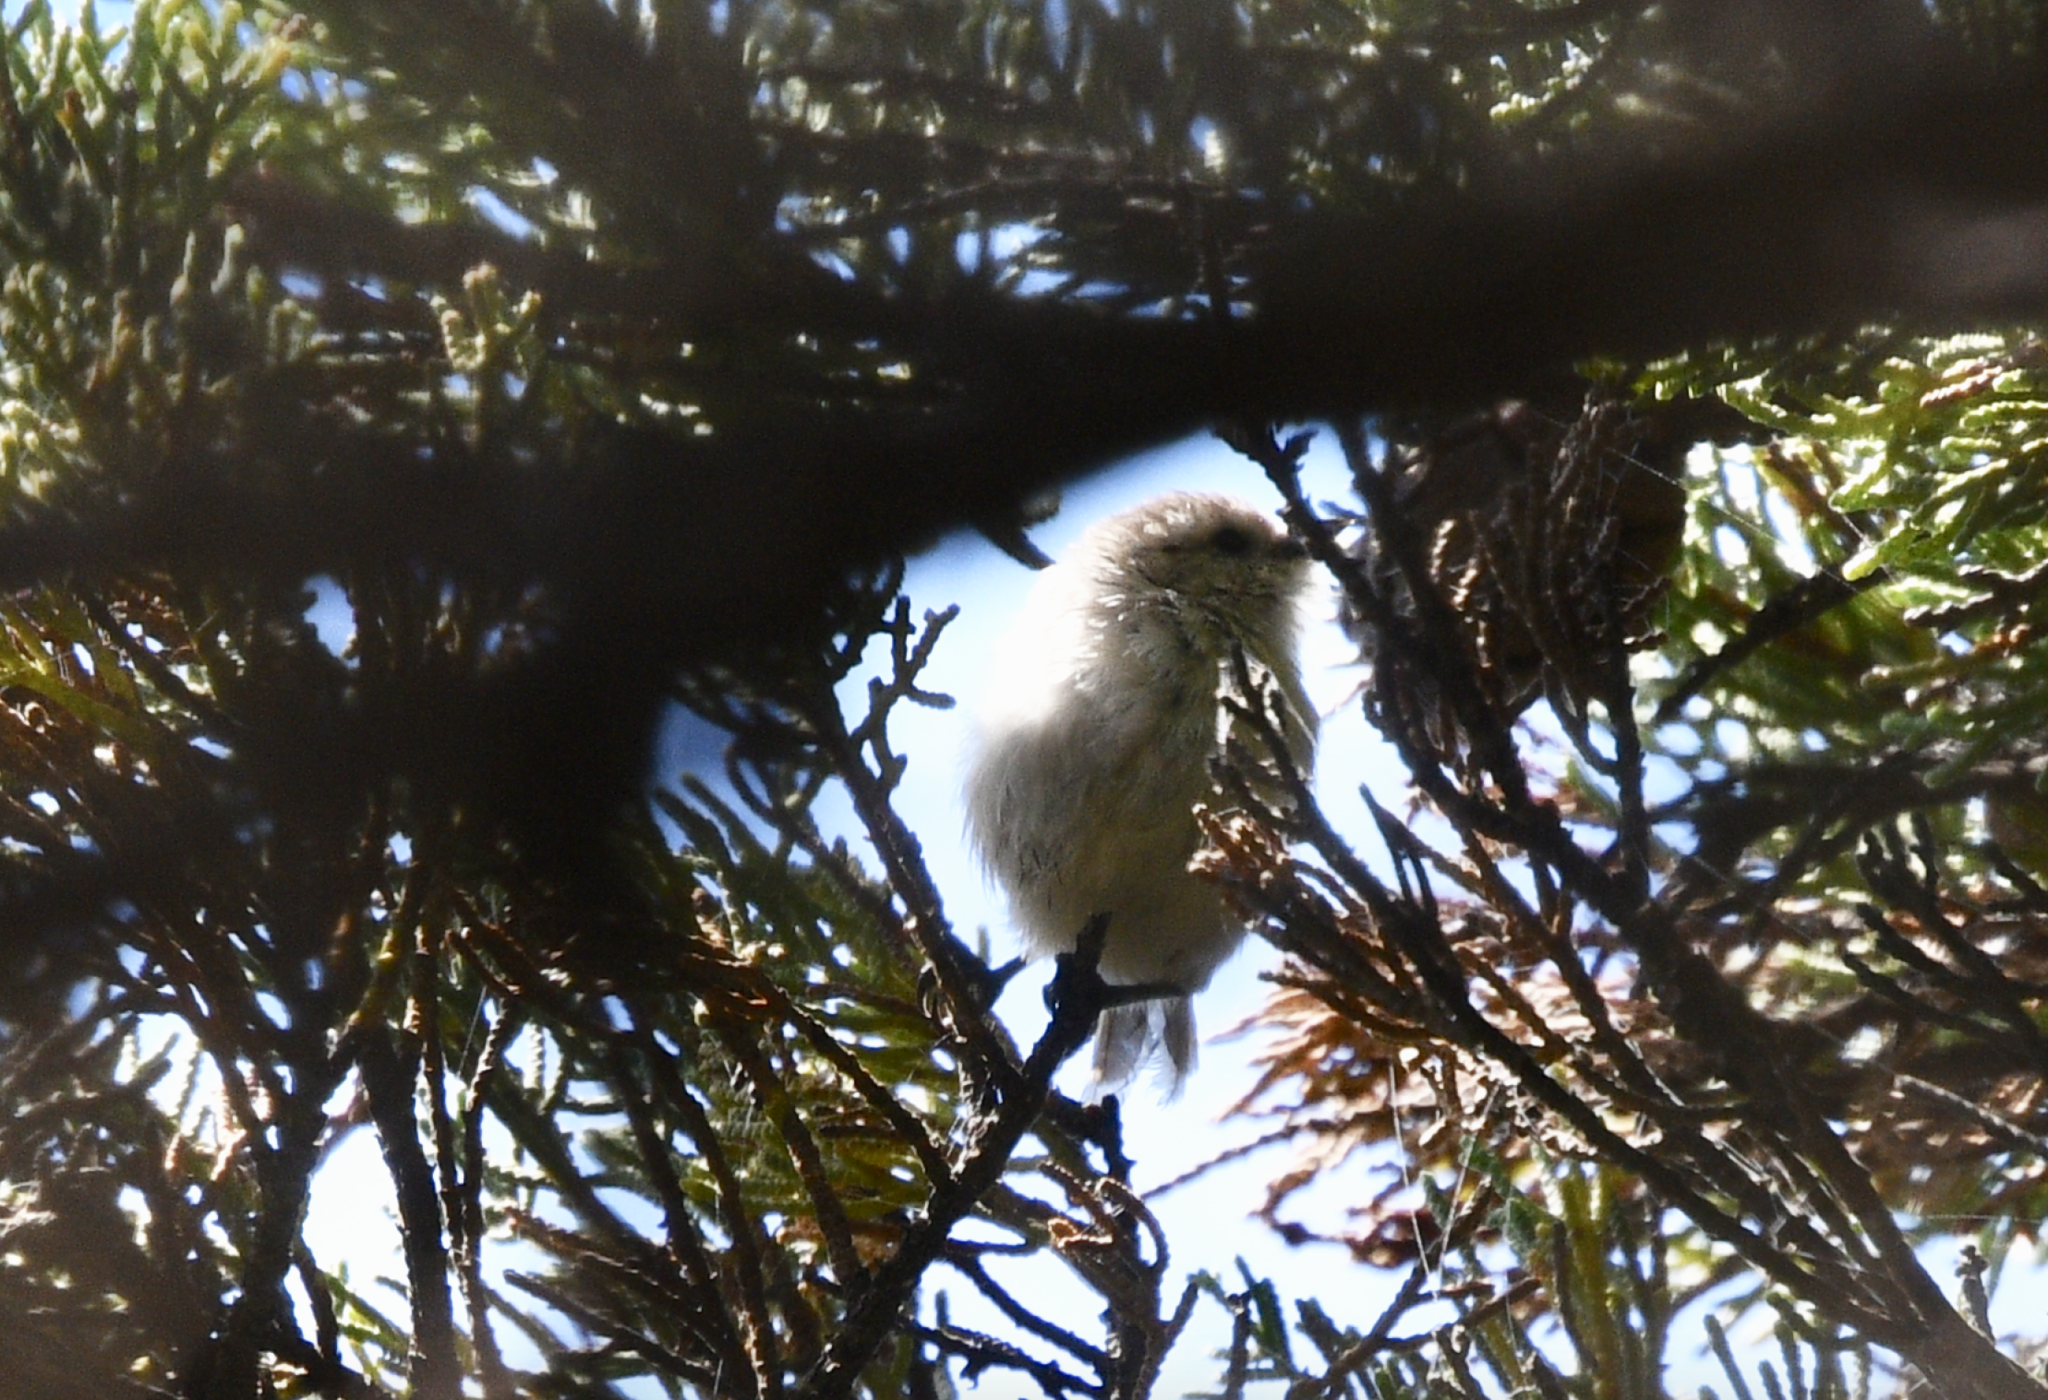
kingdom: Animalia
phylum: Chordata
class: Aves
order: Passeriformes
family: Aegithalidae
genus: Psaltriparus
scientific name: Psaltriparus minimus
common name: American bushtit
